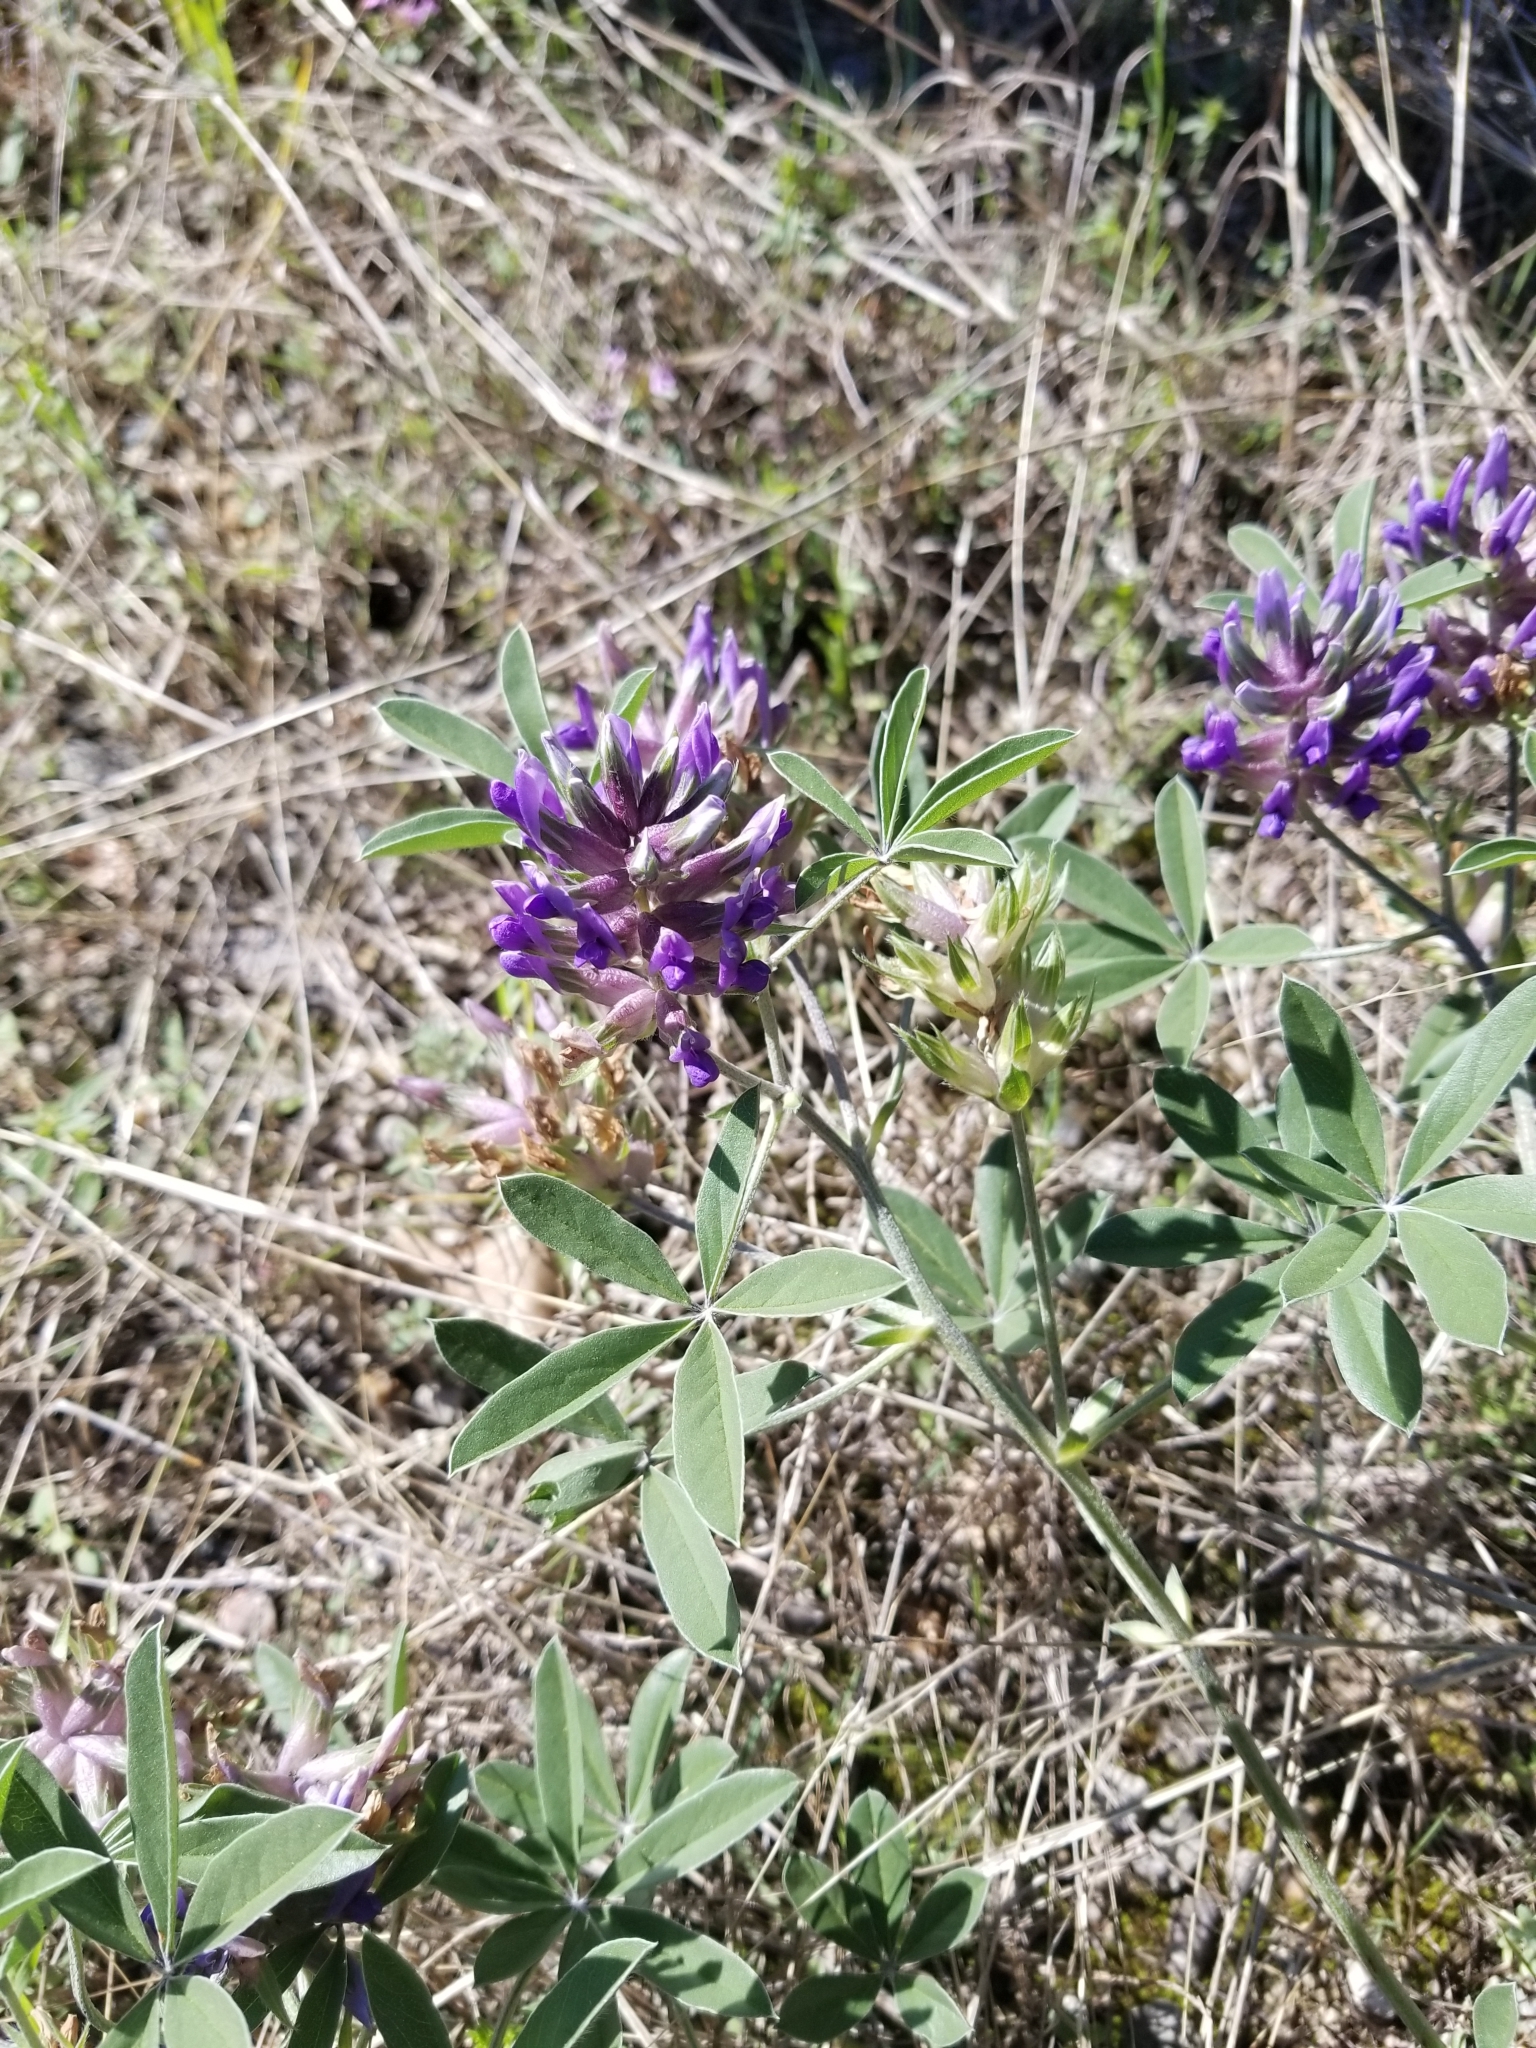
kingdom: Plantae
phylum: Tracheophyta
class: Magnoliopsida
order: Fabales
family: Fabaceae
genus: Pediomelum
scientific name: Pediomelum latestipulatum
